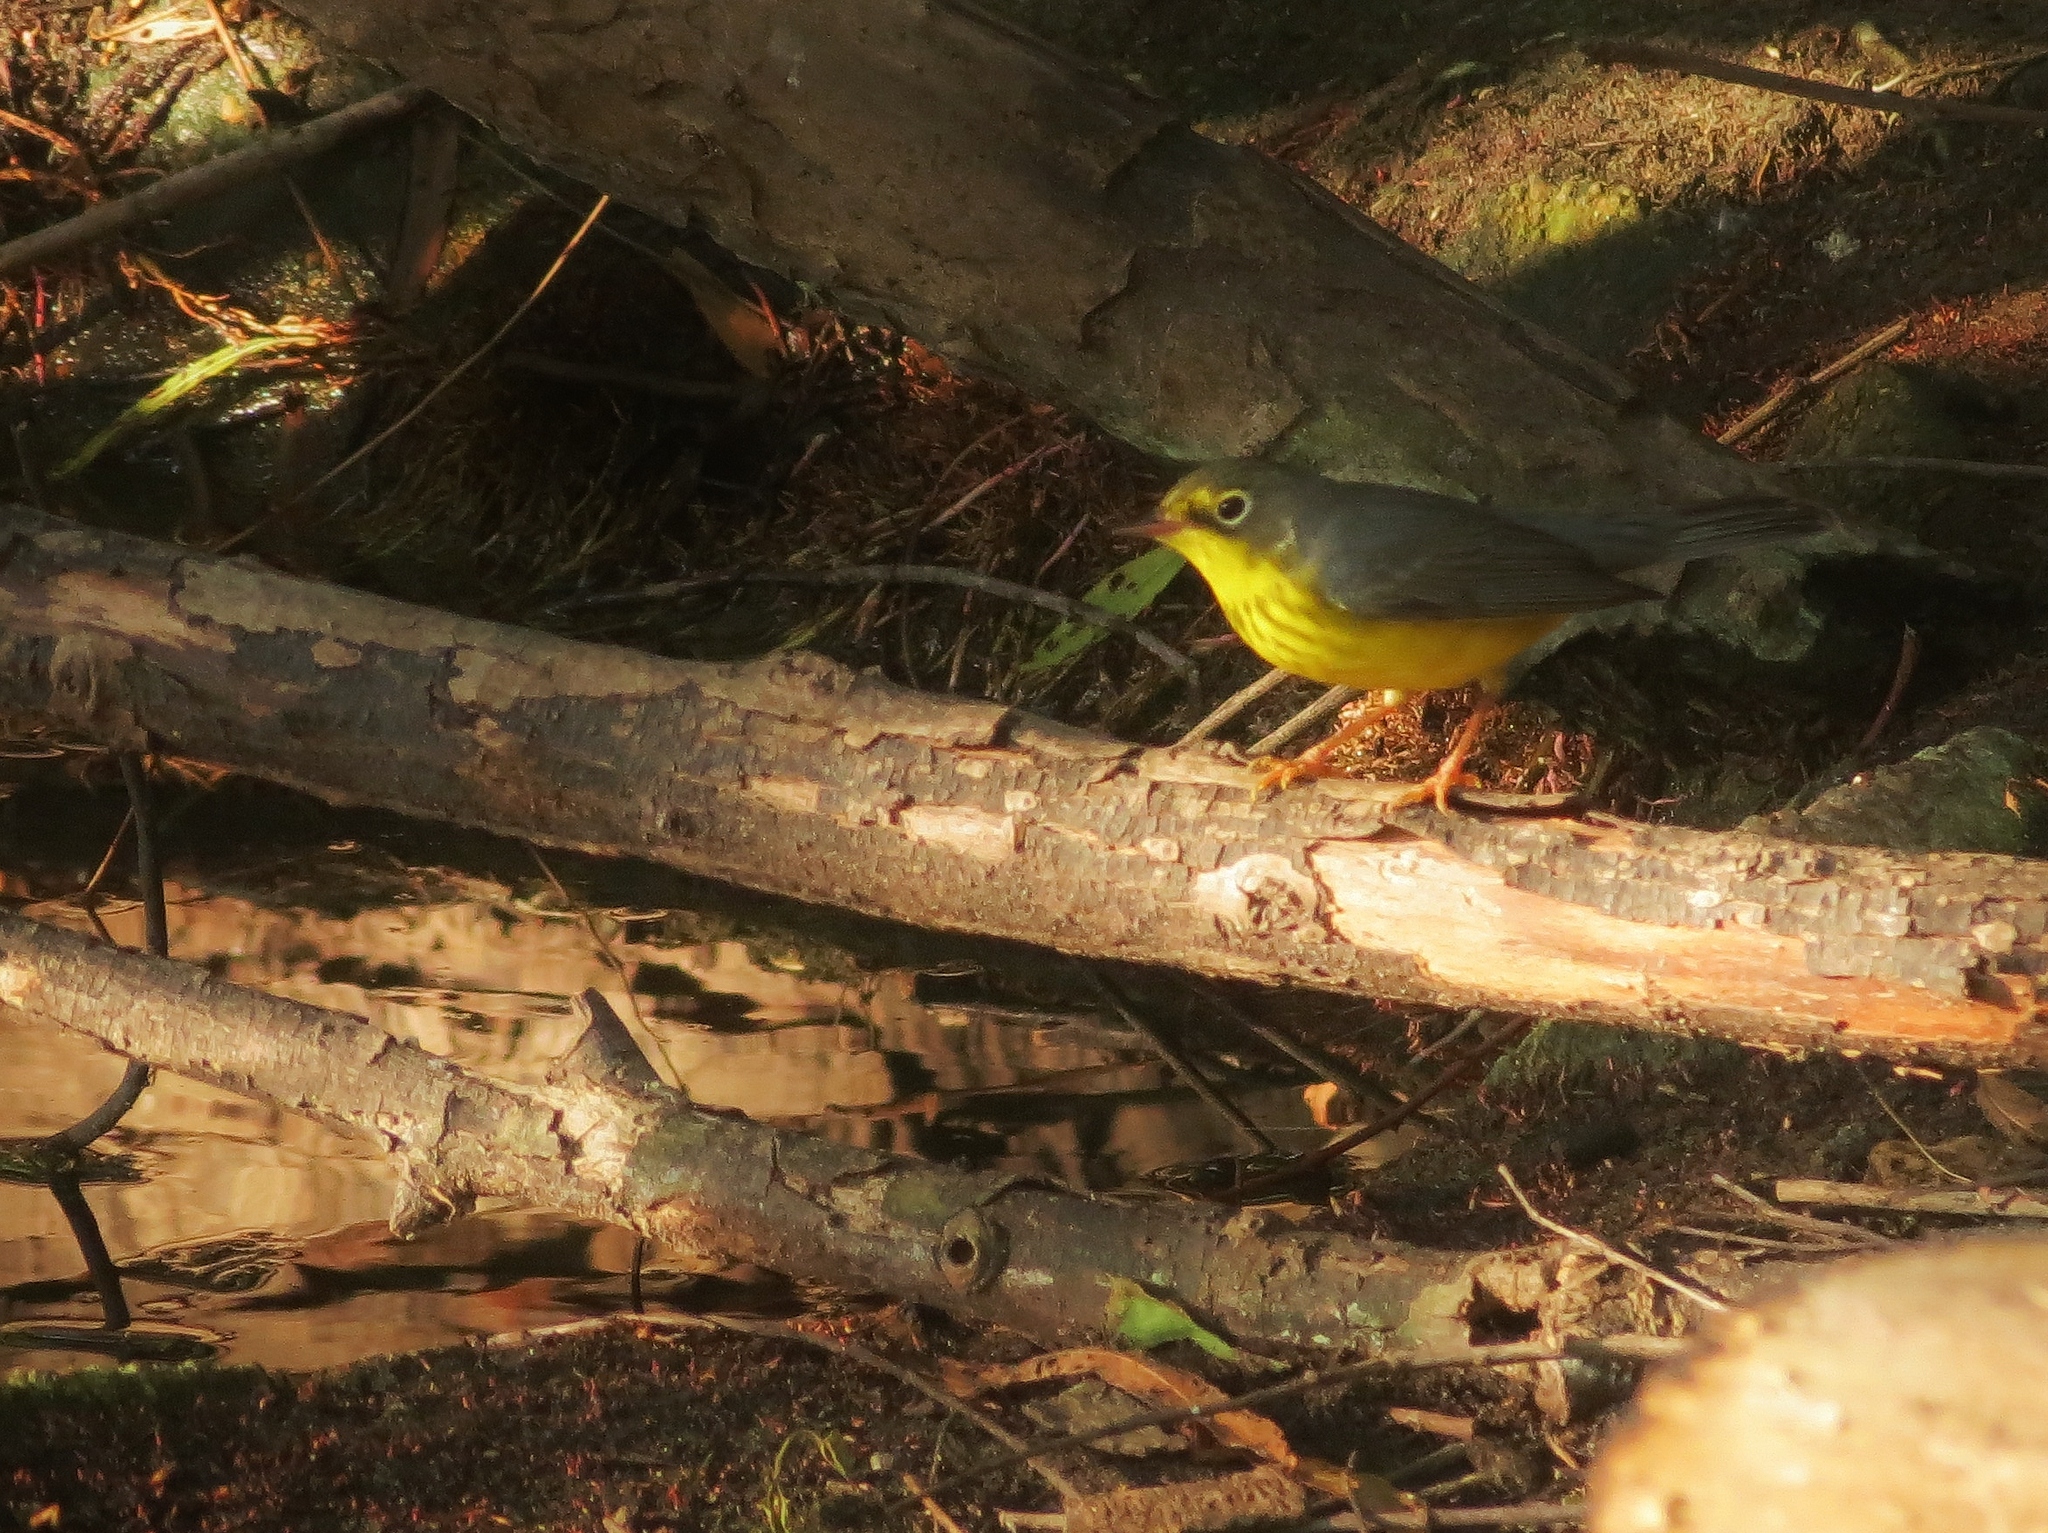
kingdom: Animalia
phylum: Chordata
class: Aves
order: Passeriformes
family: Parulidae
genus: Cardellina
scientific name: Cardellina canadensis
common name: Canada warbler
